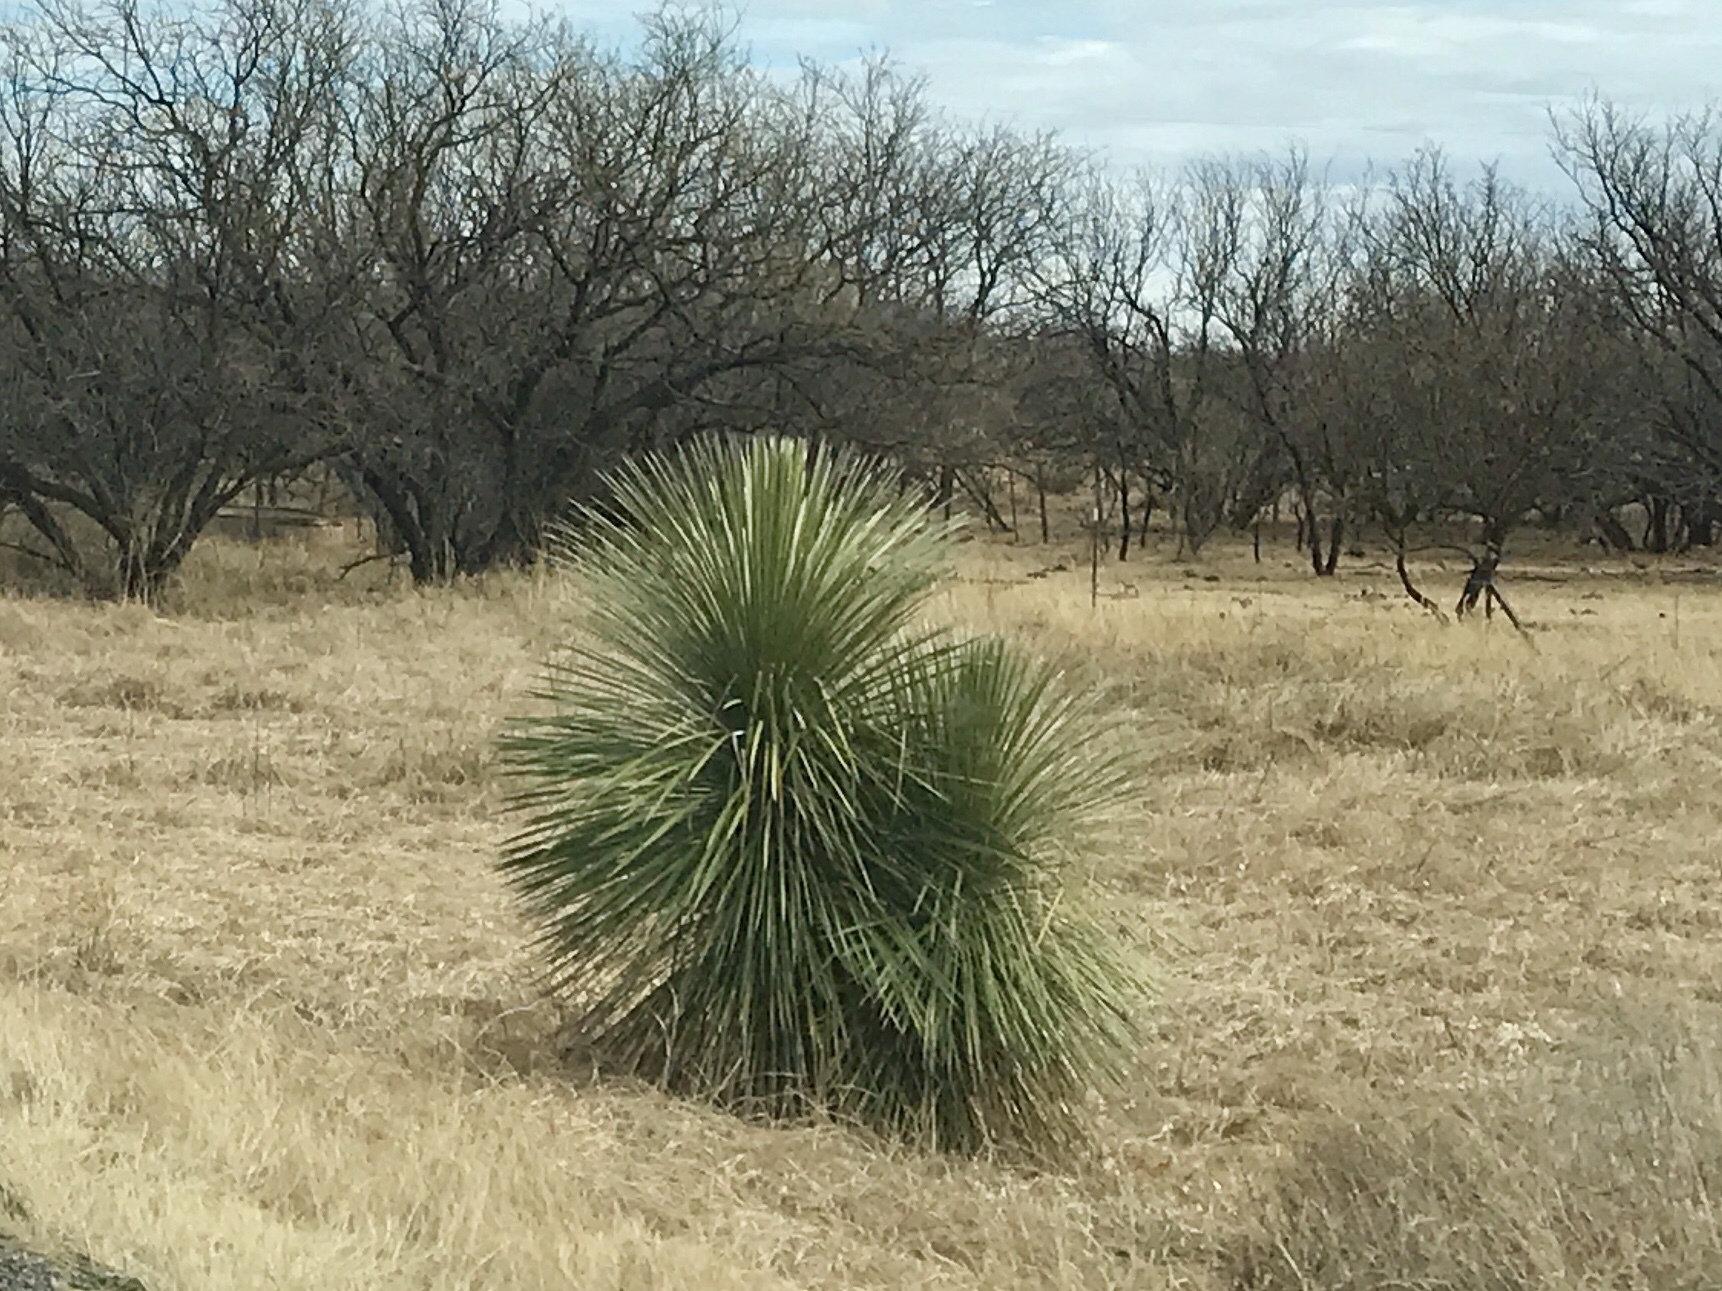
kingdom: Plantae
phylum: Tracheophyta
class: Liliopsida
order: Asparagales
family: Asparagaceae
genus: Yucca
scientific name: Yucca elata
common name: Palmella
